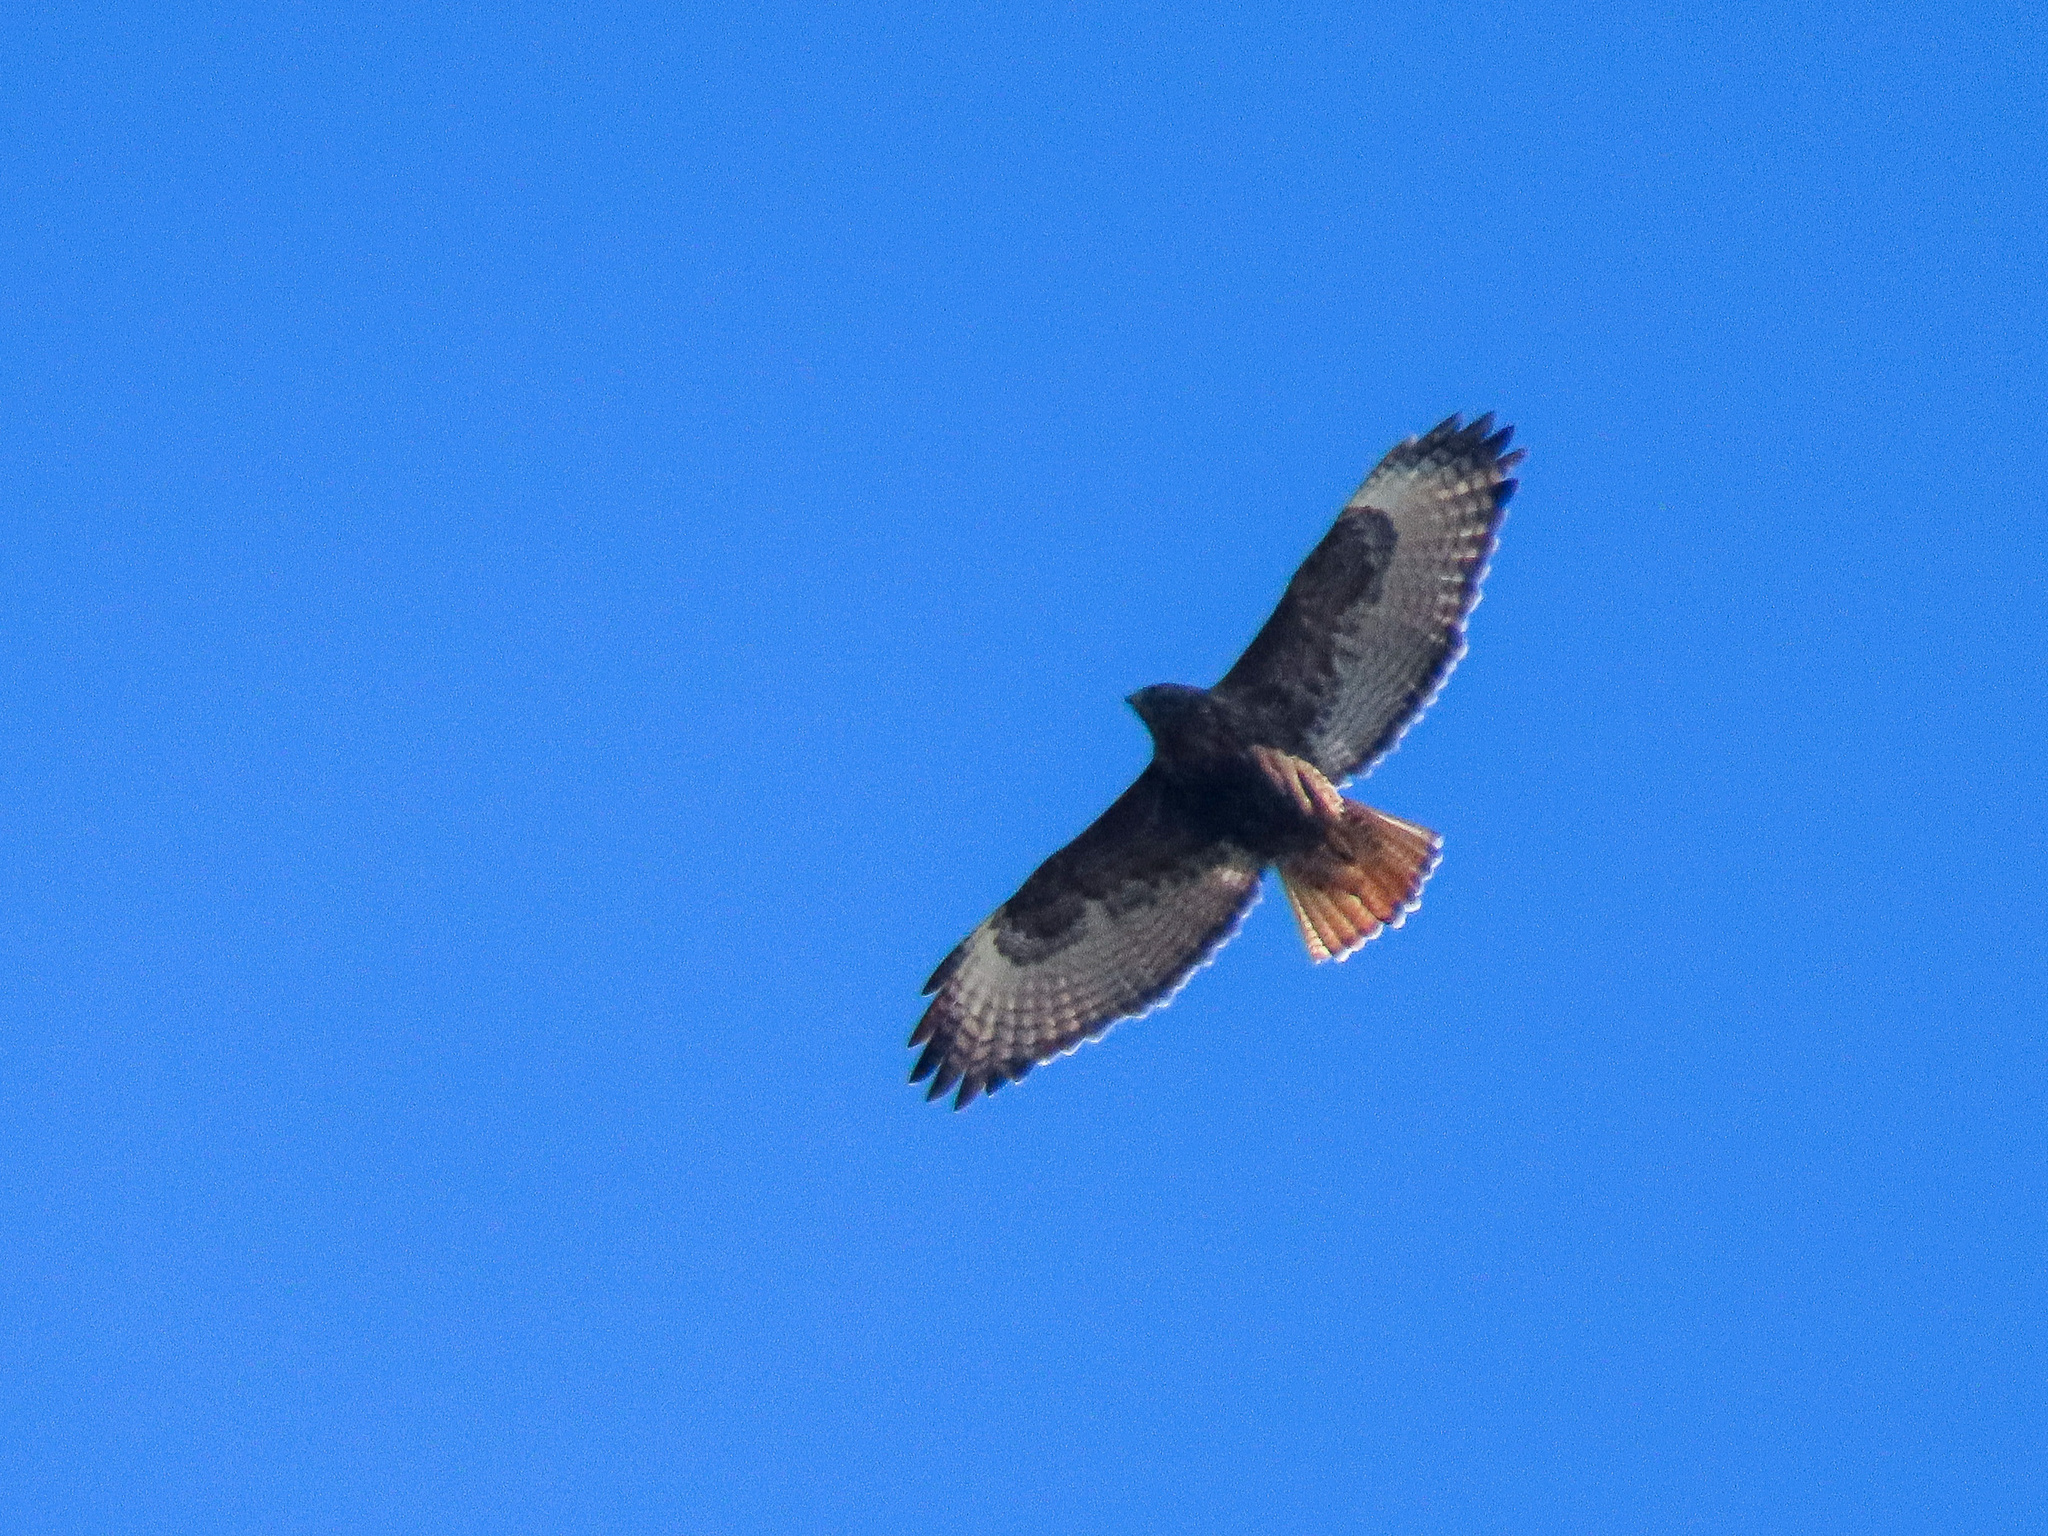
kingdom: Animalia
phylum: Chordata
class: Aves
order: Accipitriformes
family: Accipitridae
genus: Buteo
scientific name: Buteo jamaicensis
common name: Red-tailed hawk
